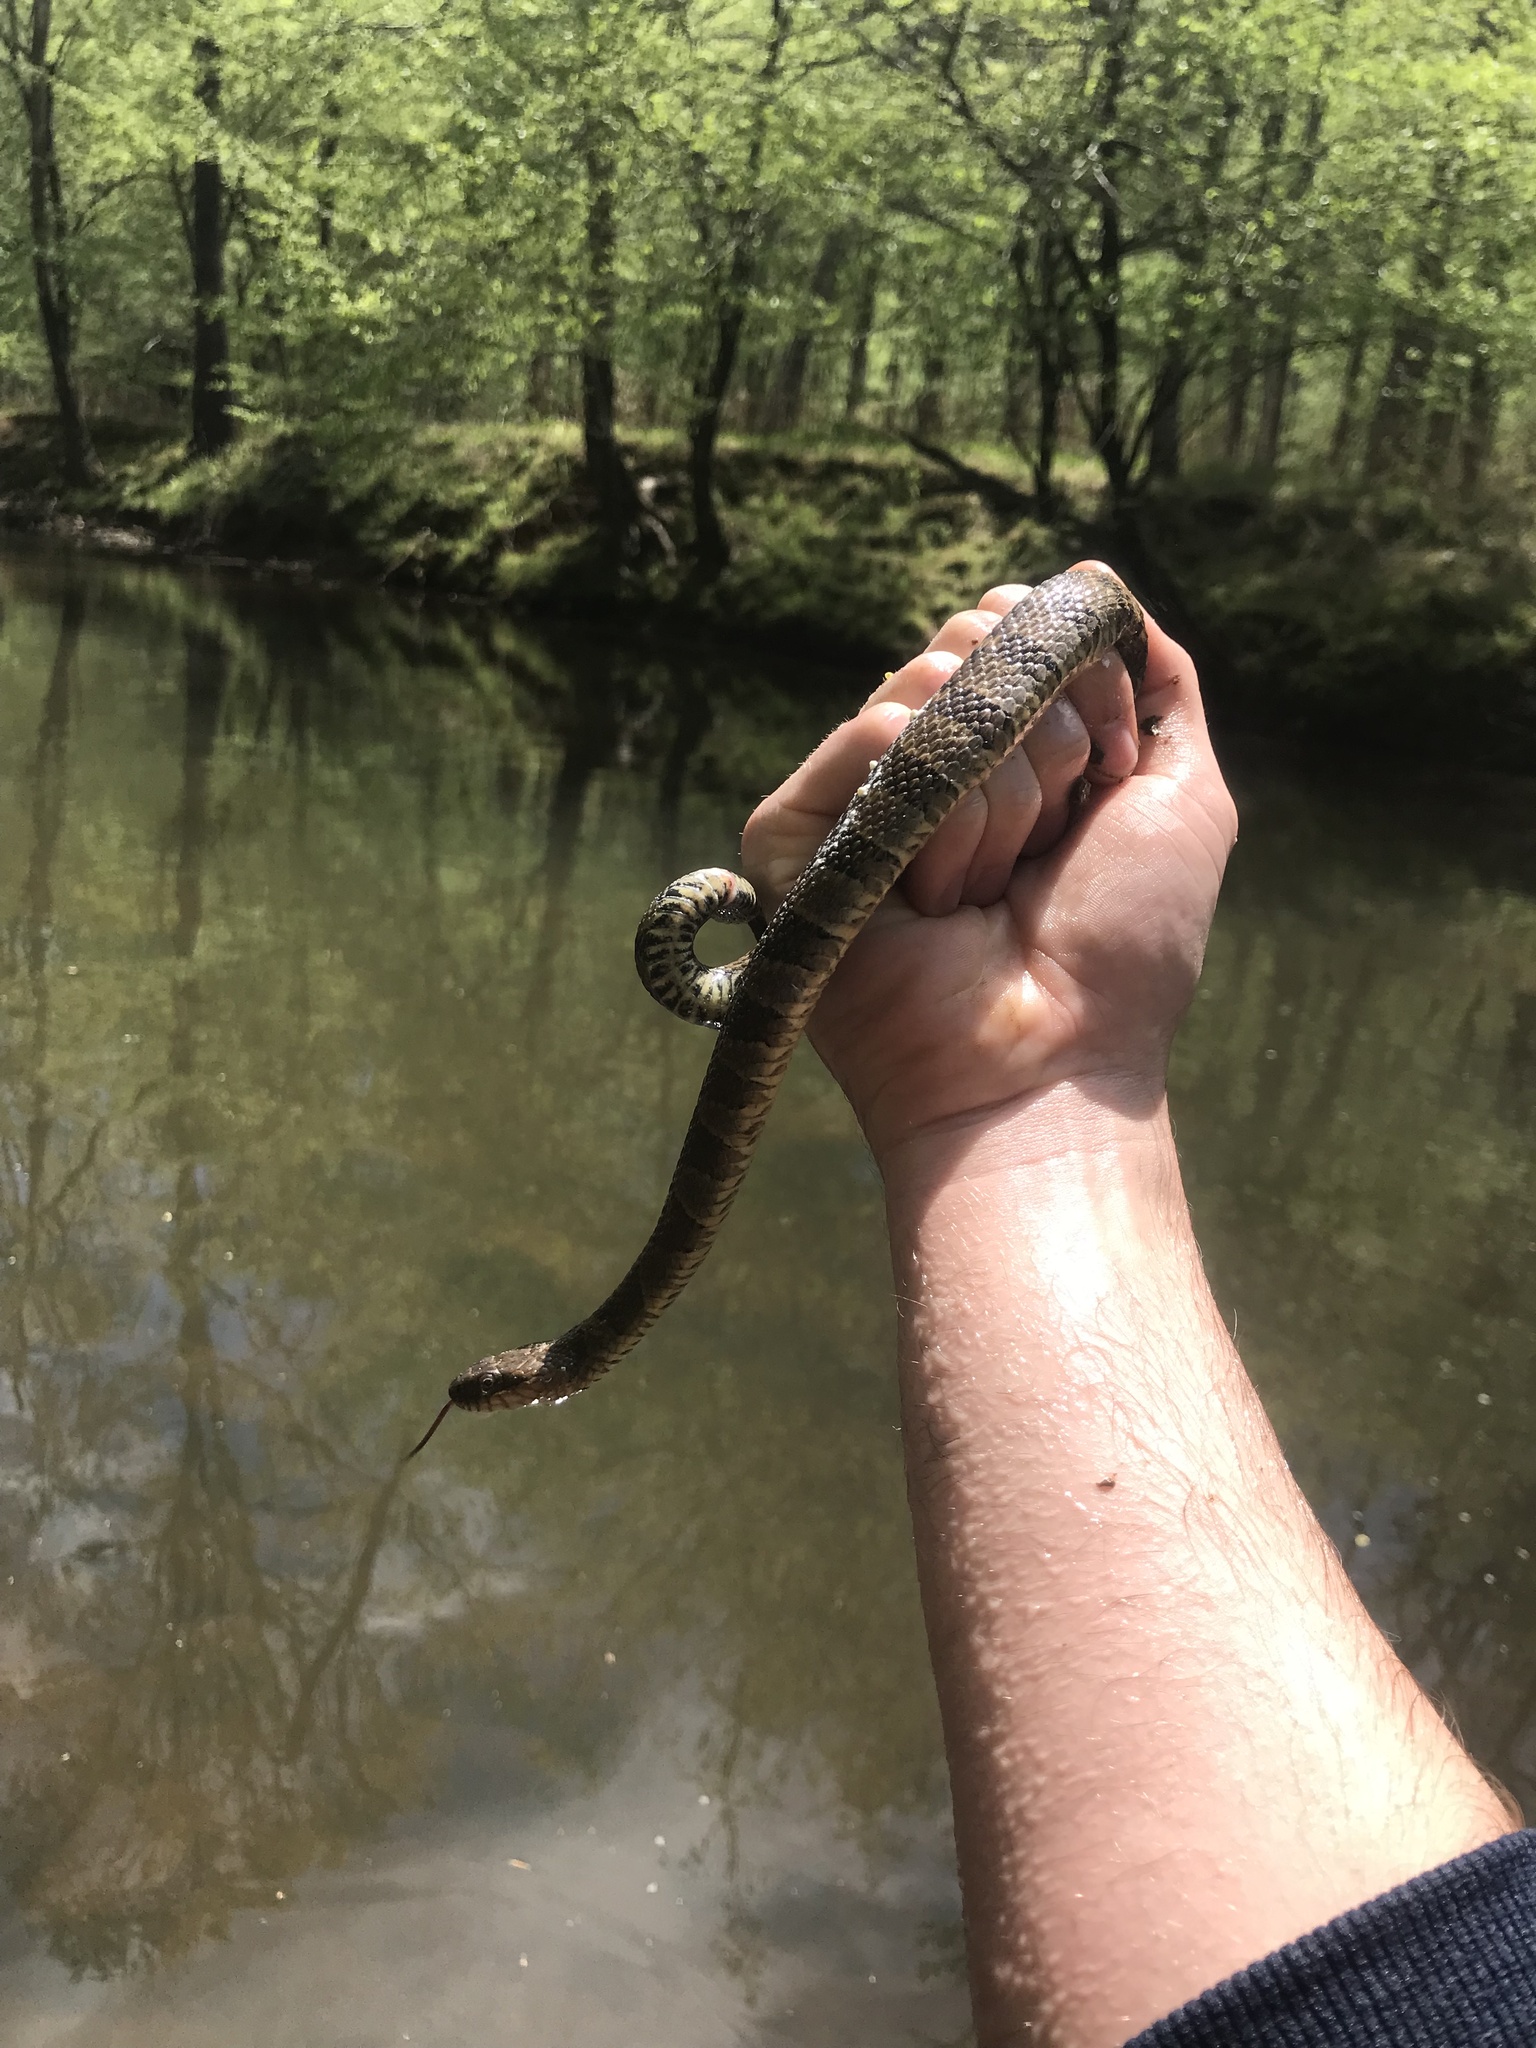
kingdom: Animalia
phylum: Chordata
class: Squamata
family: Colubridae
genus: Nerodia
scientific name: Nerodia sipedon
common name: Northern water snake
